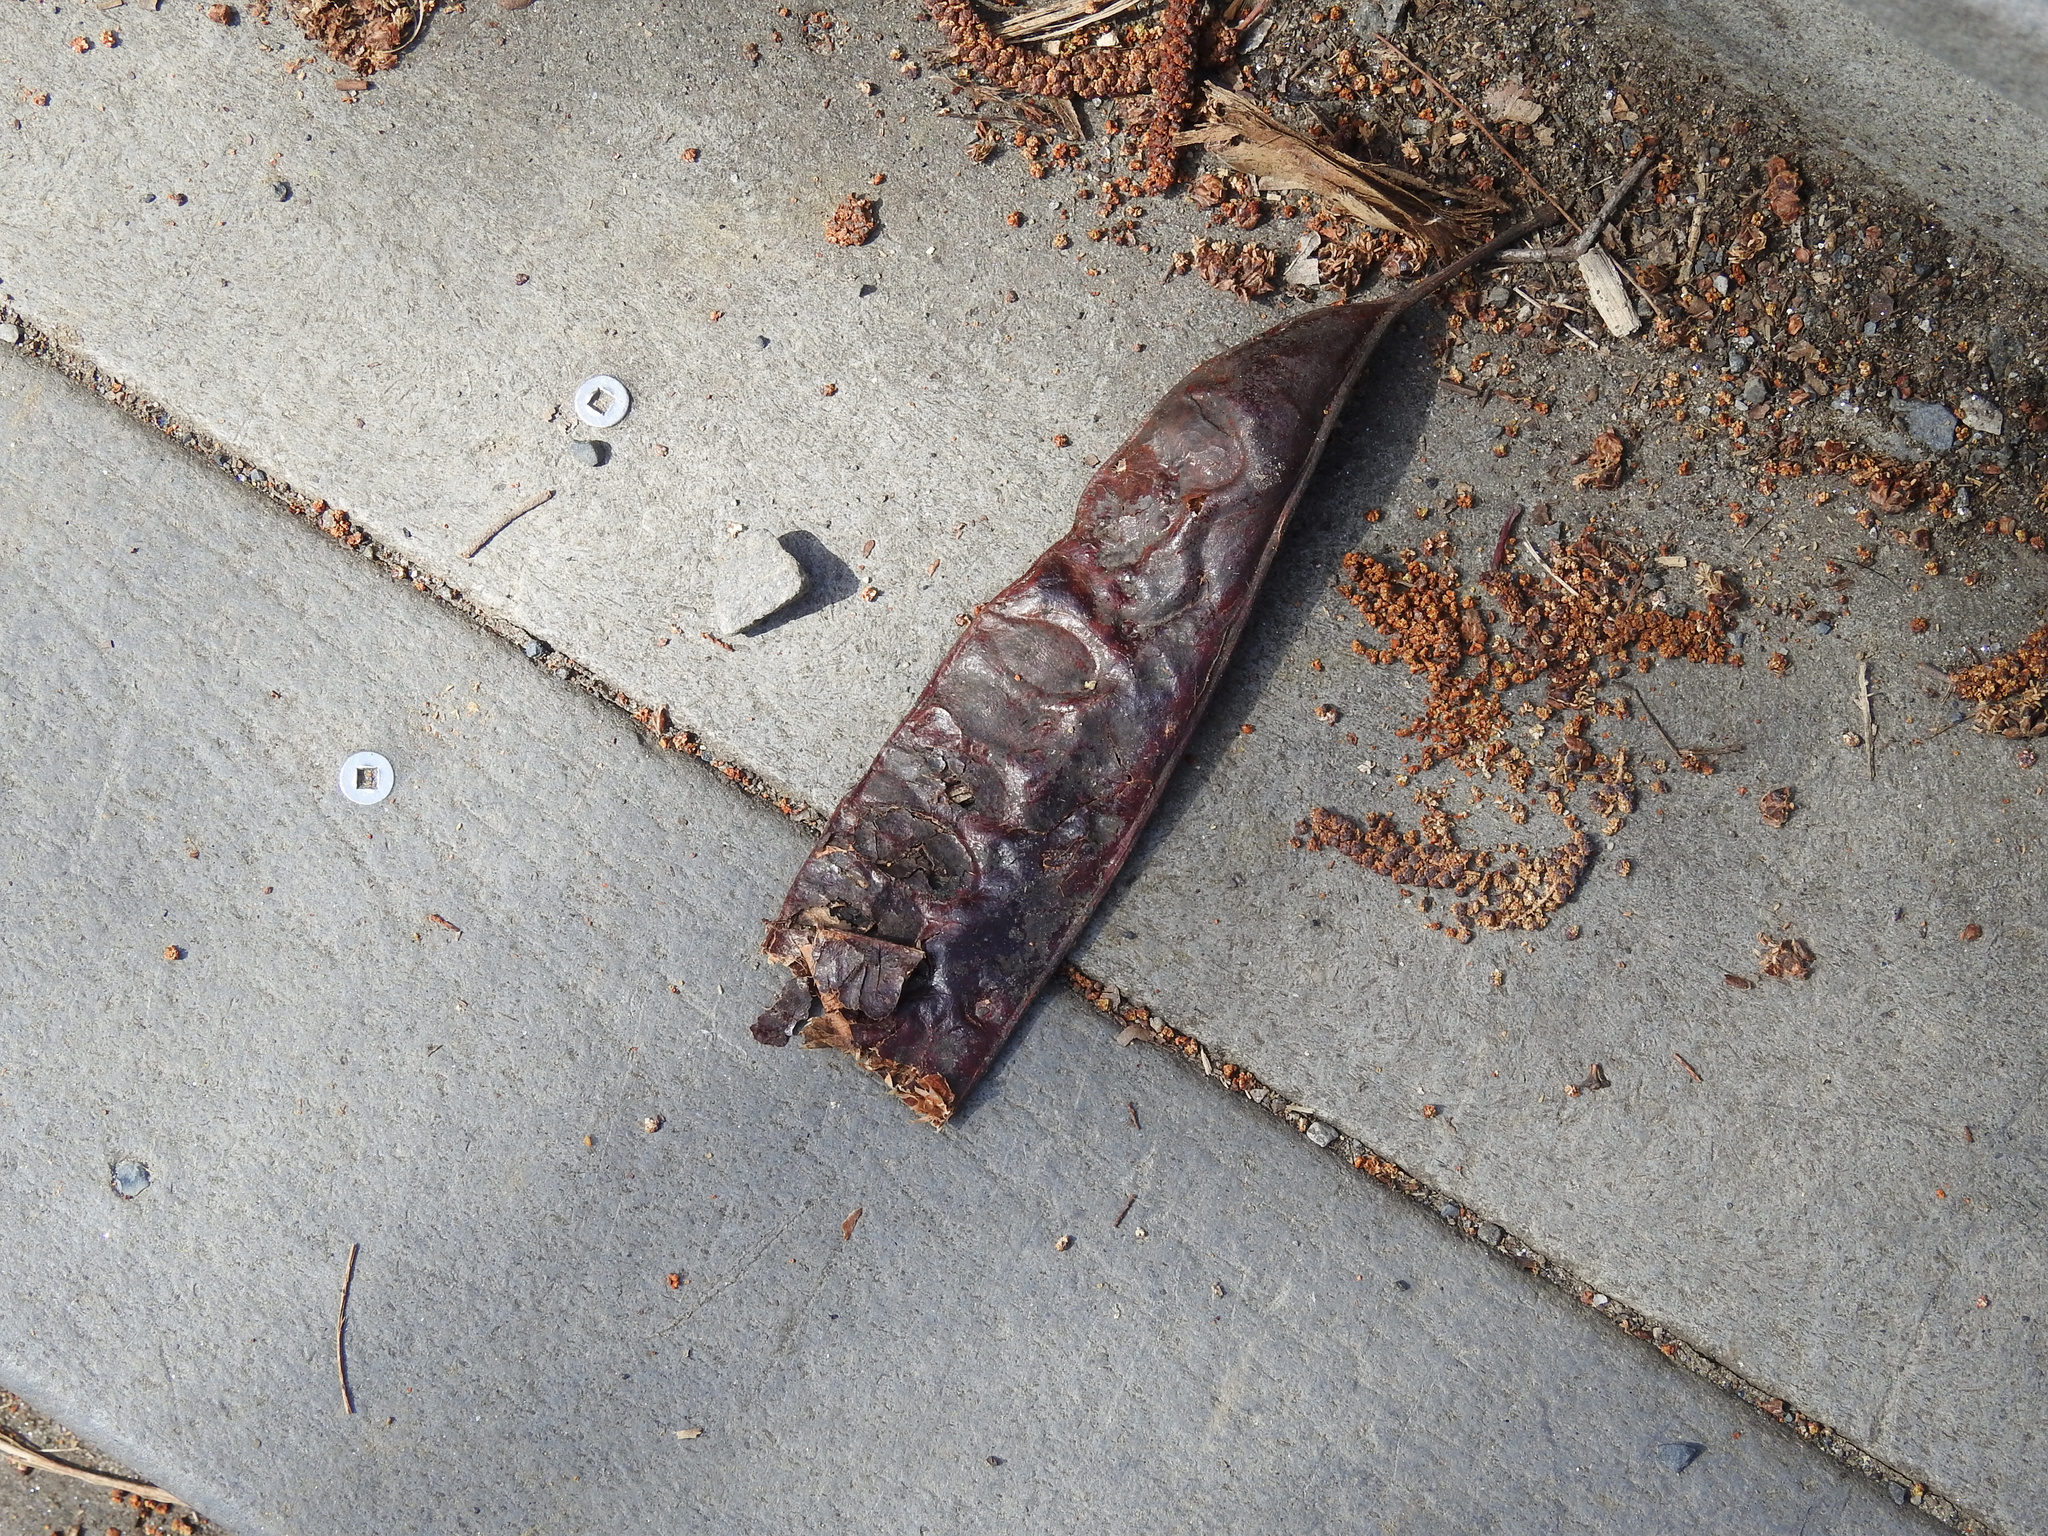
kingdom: Plantae
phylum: Tracheophyta
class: Magnoliopsida
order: Fabales
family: Fabaceae
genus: Gleditsia
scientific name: Gleditsia triacanthos
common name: Common honeylocust
